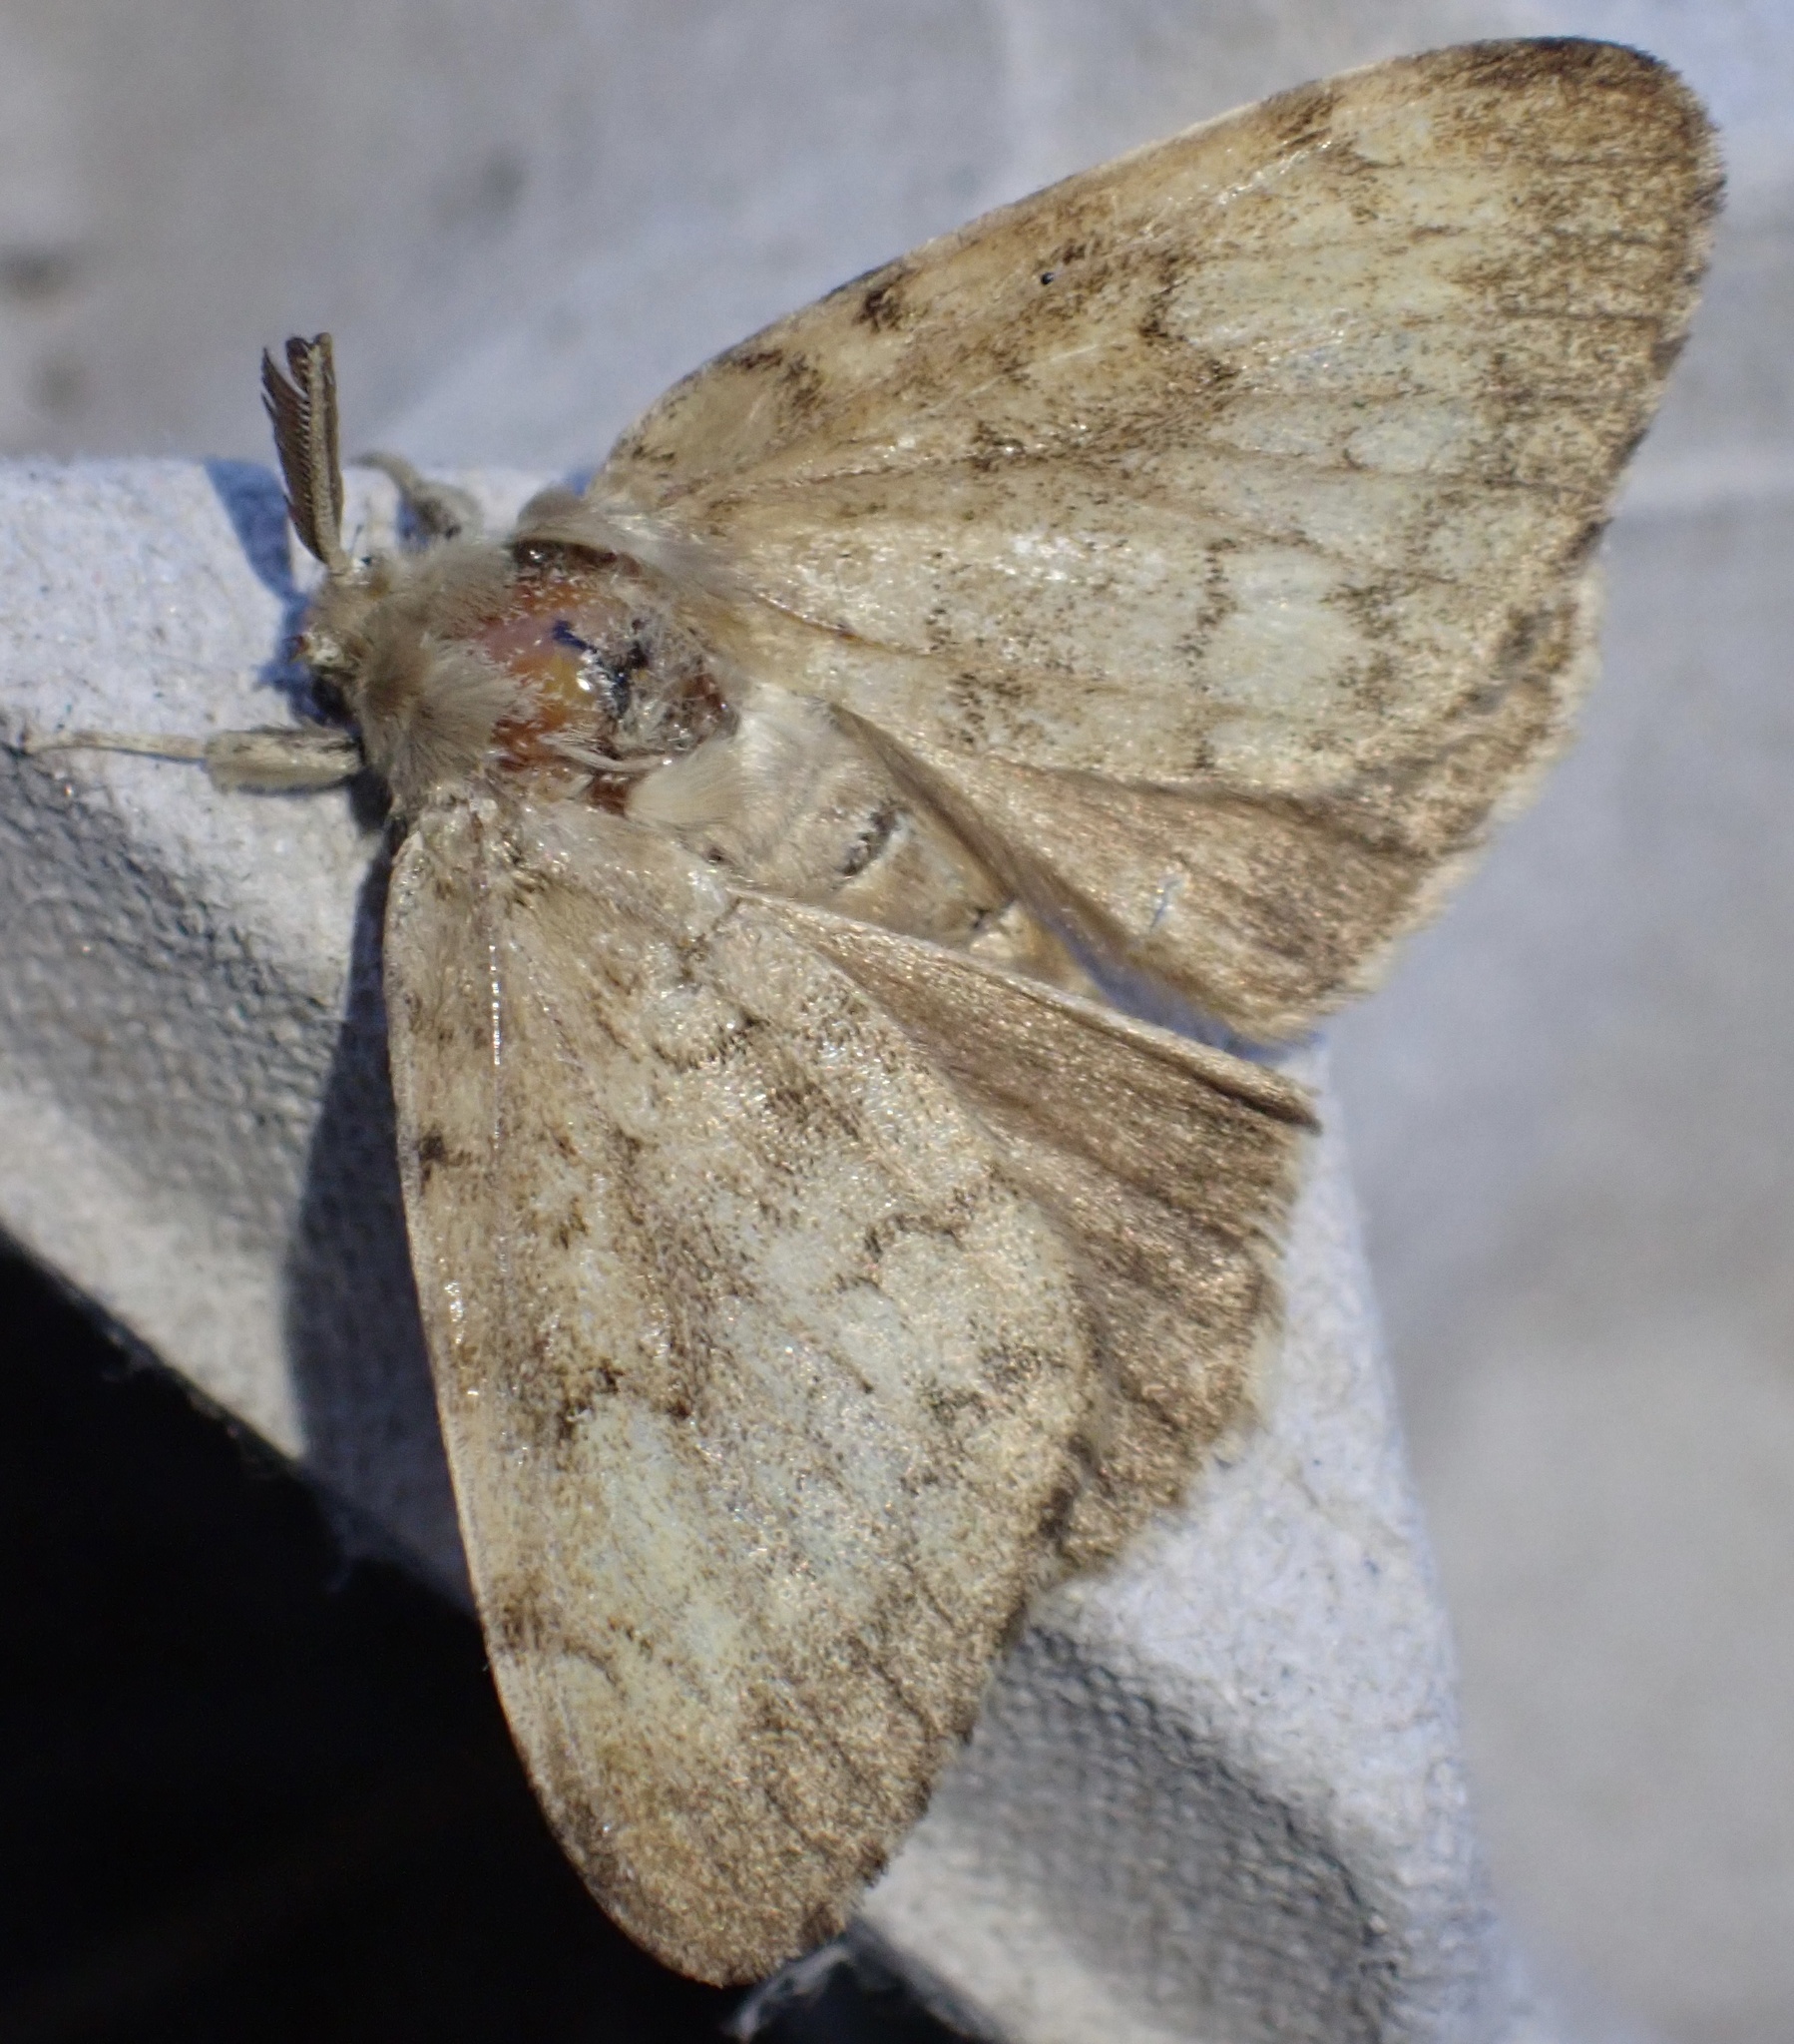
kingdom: Animalia
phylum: Arthropoda
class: Insecta
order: Lepidoptera
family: Erebidae
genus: Lymantria
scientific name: Lymantria dispar
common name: Gypsy moth
